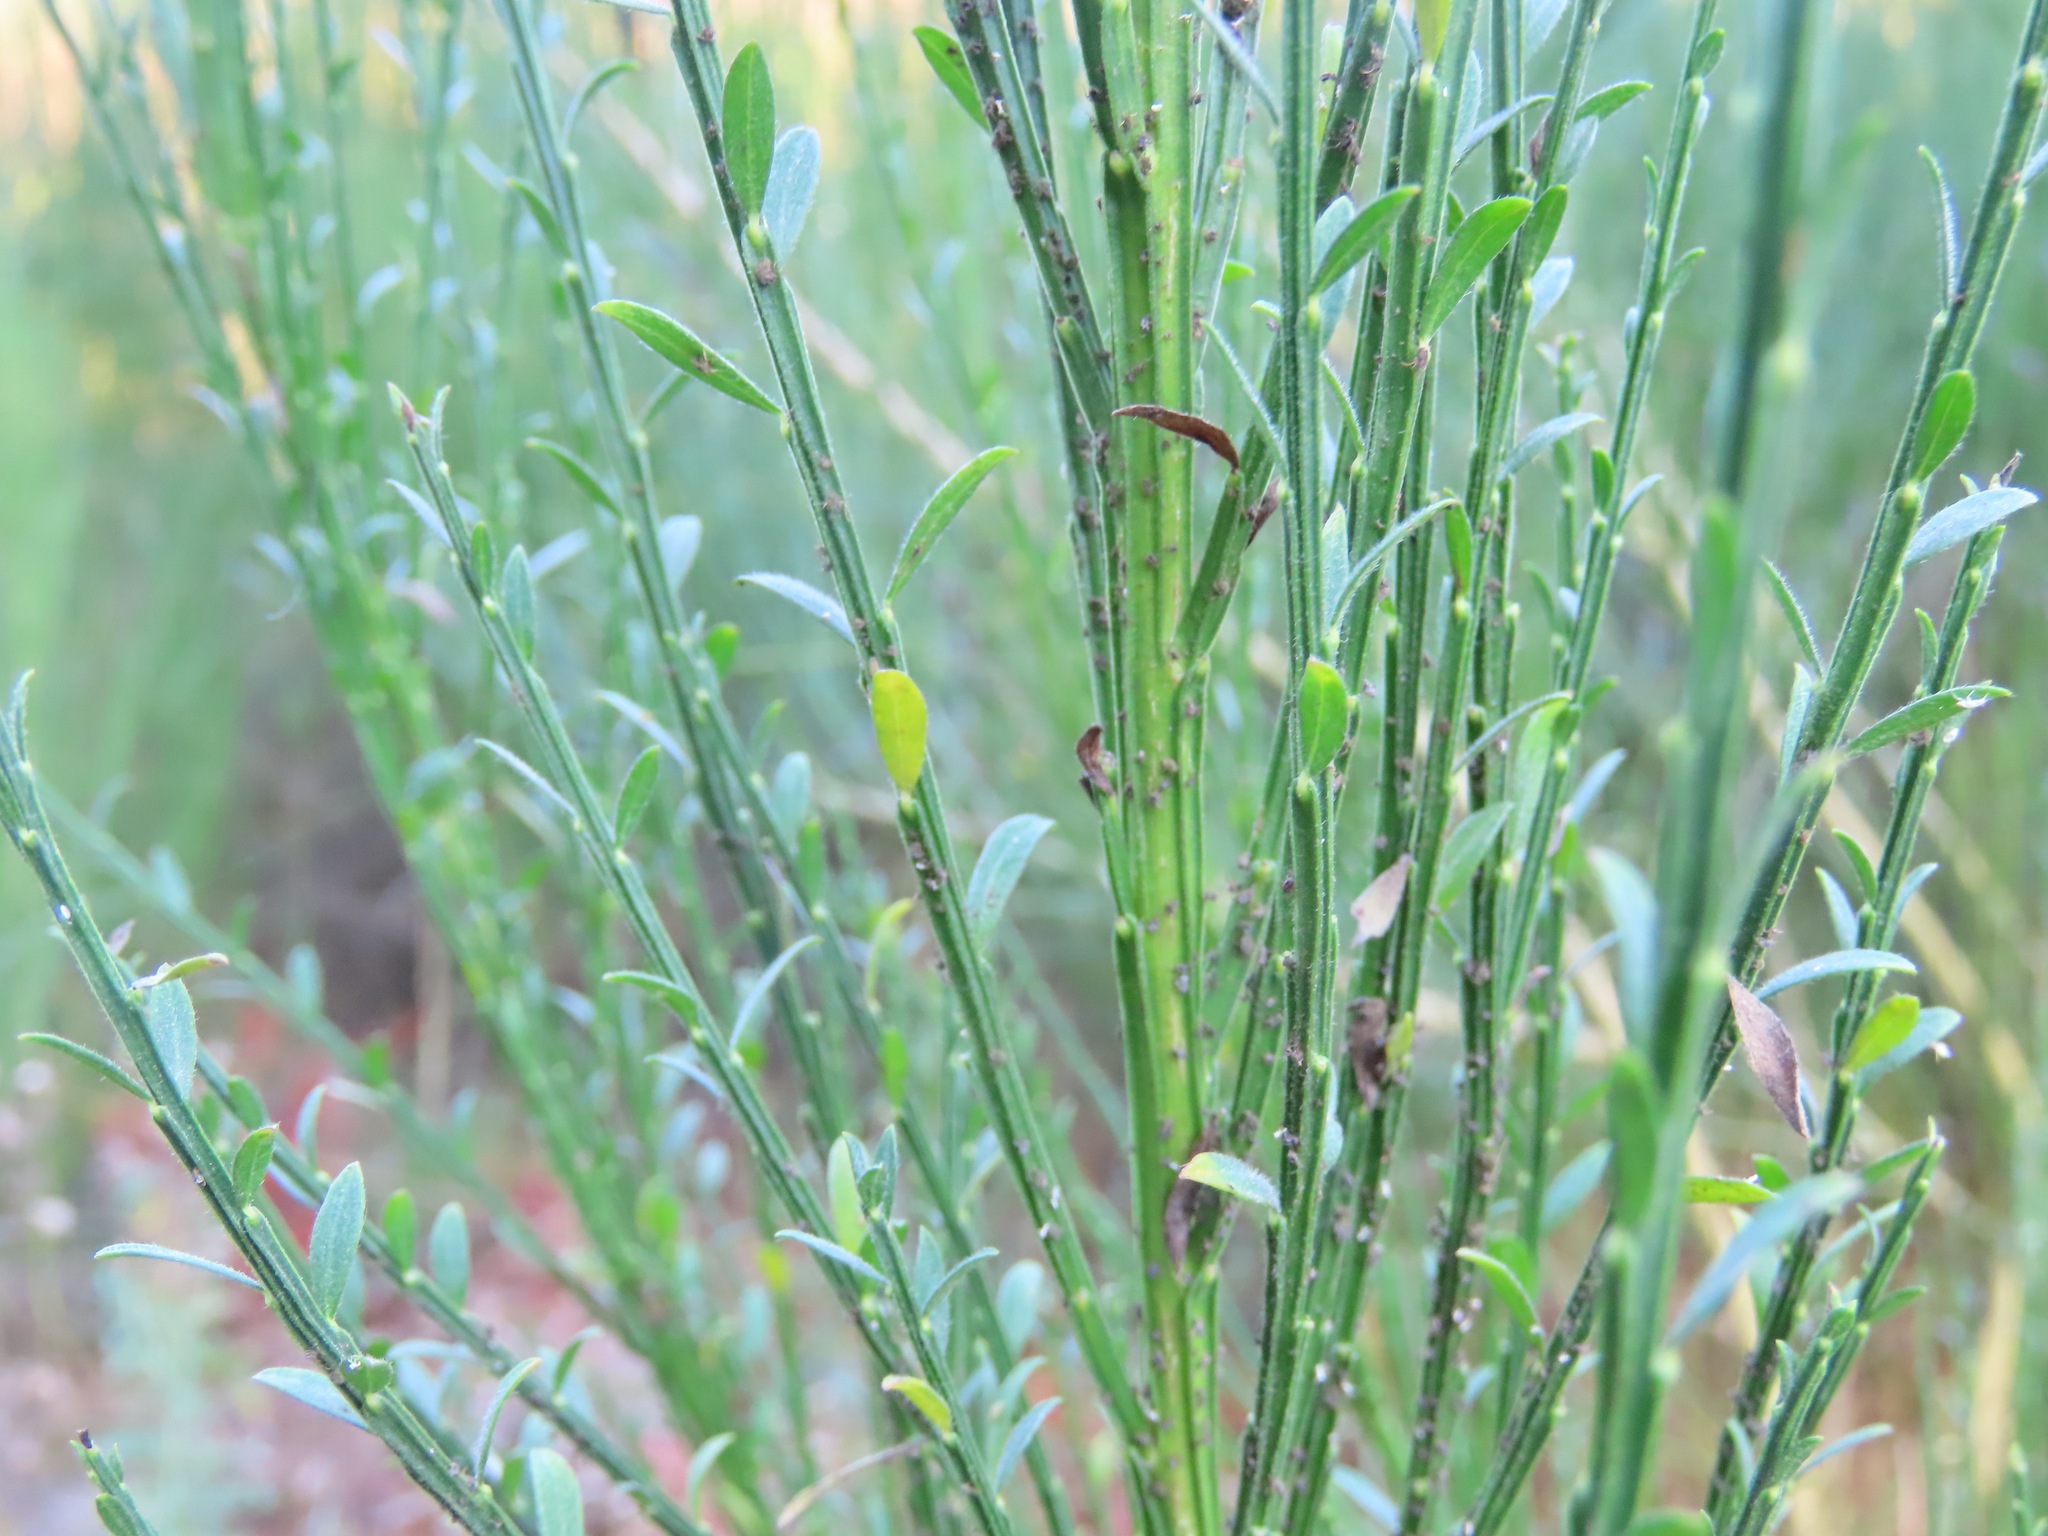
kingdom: Plantae
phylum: Tracheophyta
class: Magnoliopsida
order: Fabales
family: Fabaceae
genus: Cytisus
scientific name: Cytisus scoparius
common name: Scotch broom
